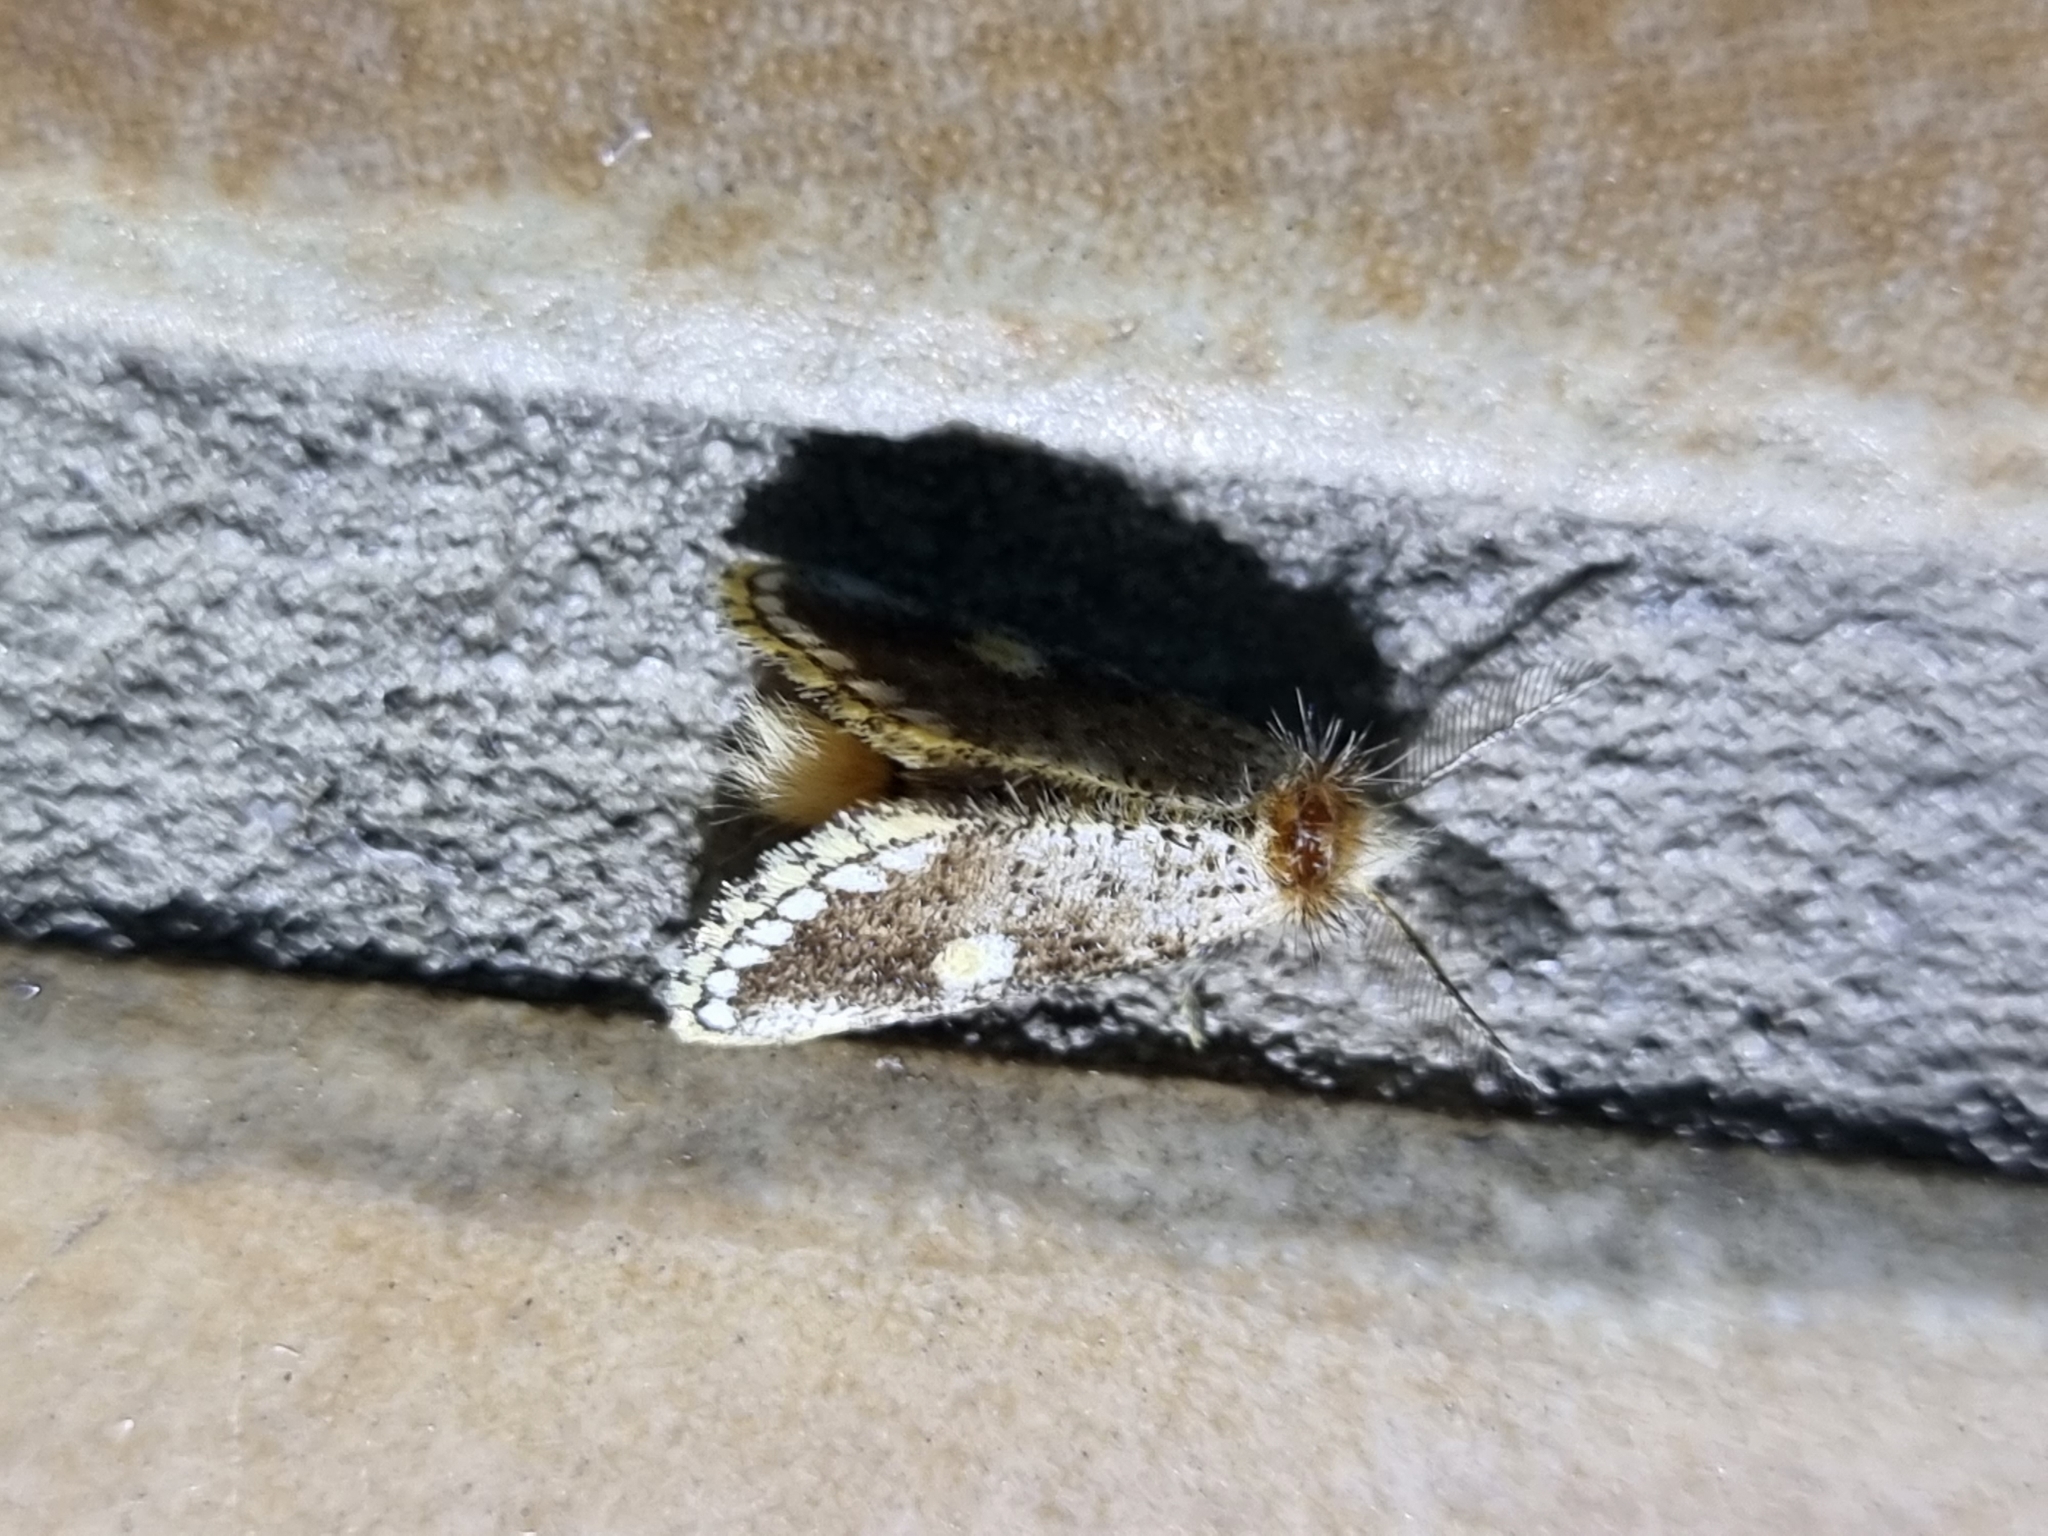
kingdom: Animalia
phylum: Arthropoda
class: Insecta
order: Lepidoptera
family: Notodontidae
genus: Epicoma
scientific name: Epicoma protrahens
